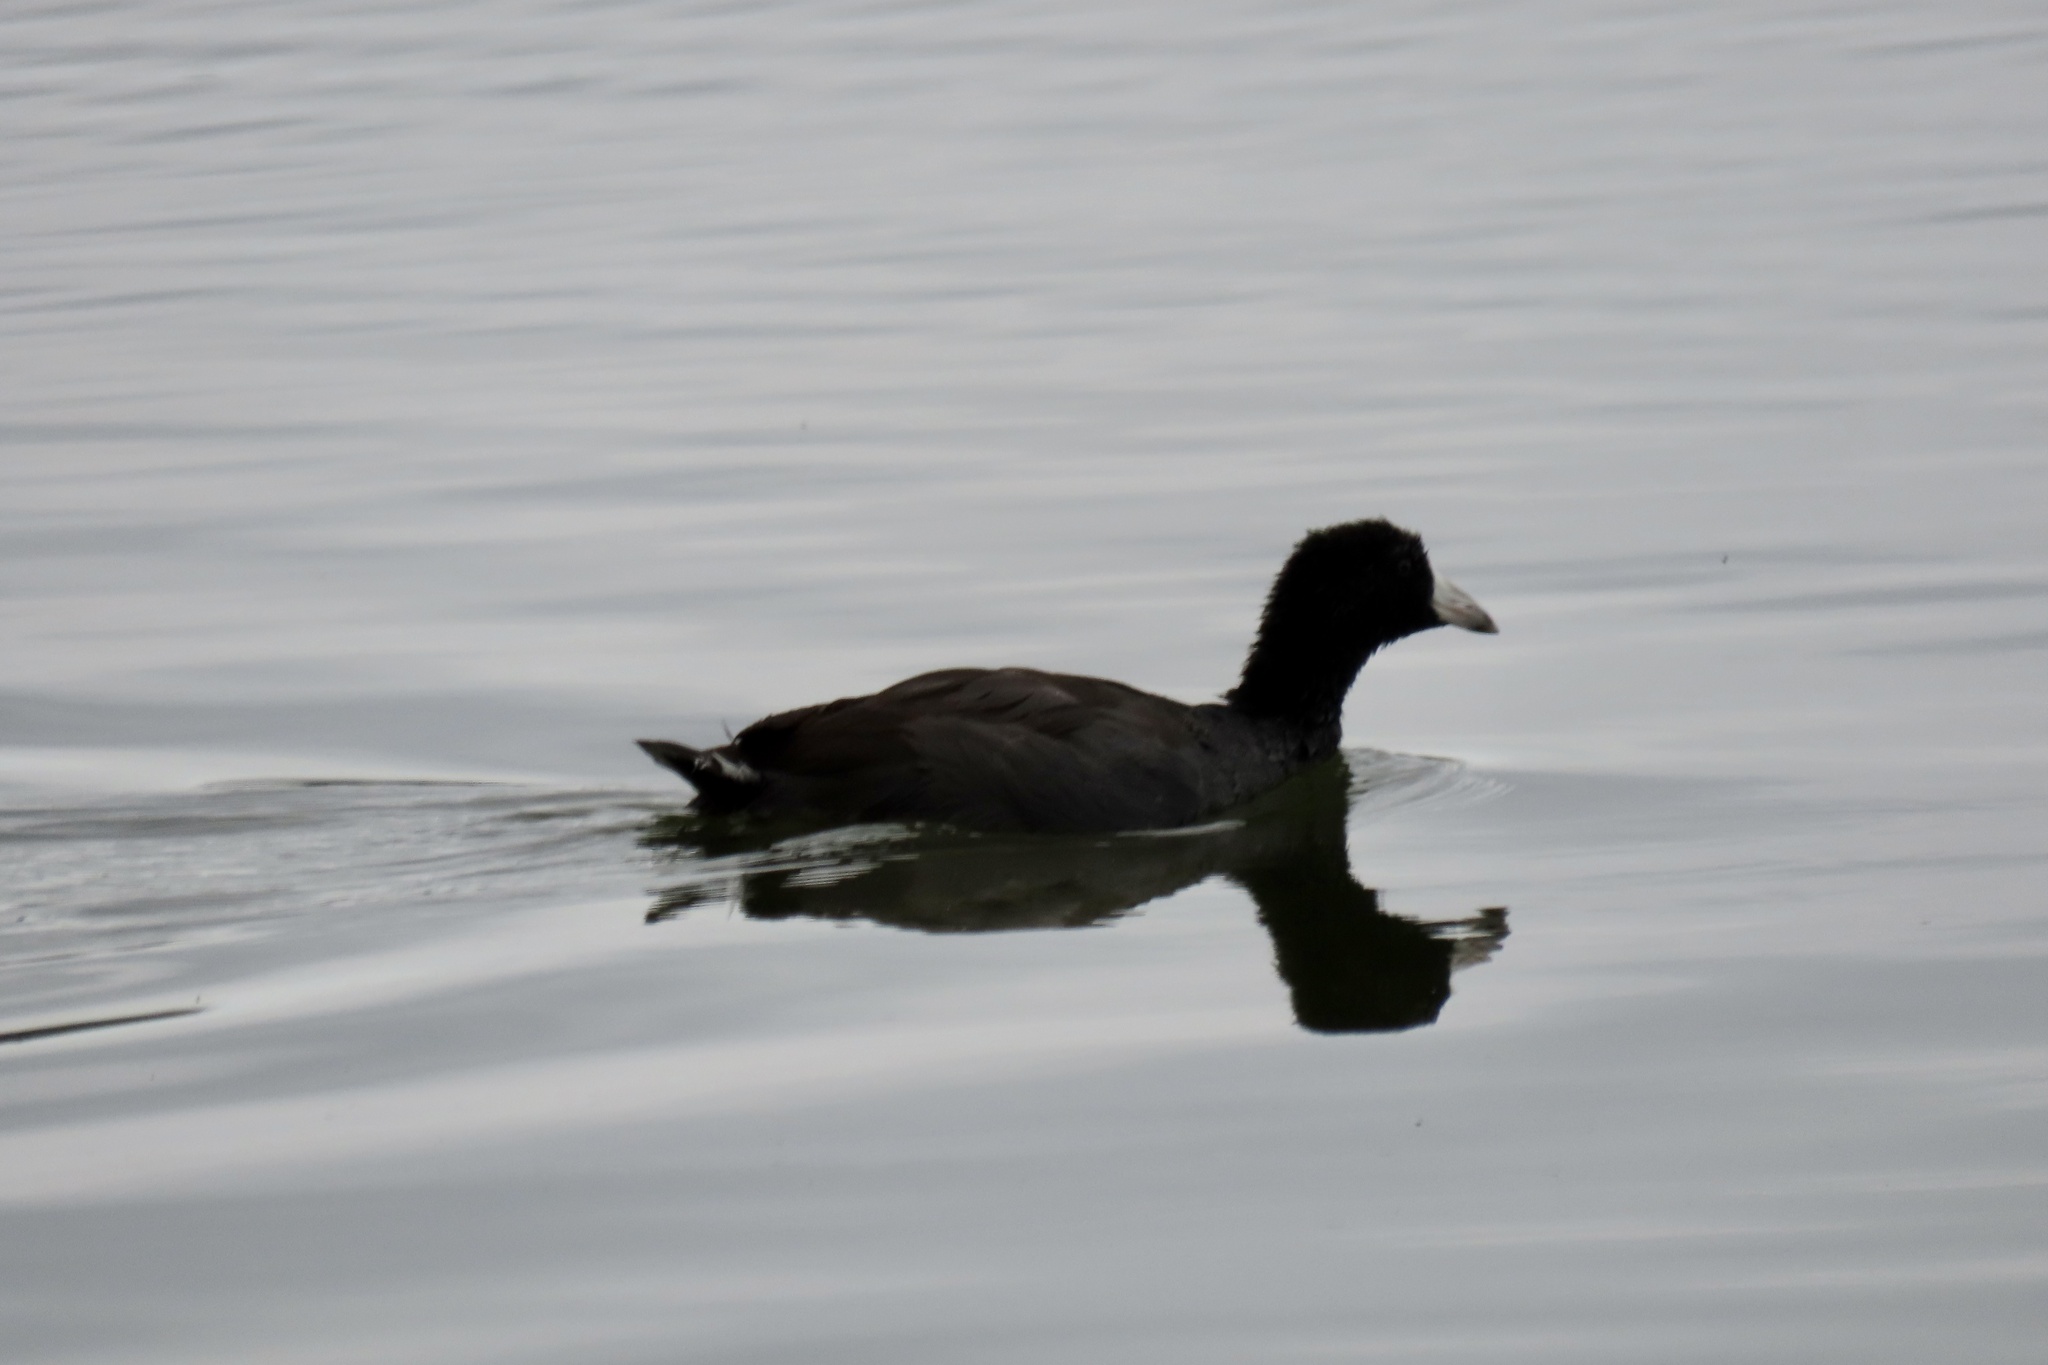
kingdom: Animalia
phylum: Chordata
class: Aves
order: Gruiformes
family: Rallidae
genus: Fulica
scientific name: Fulica americana
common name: American coot
